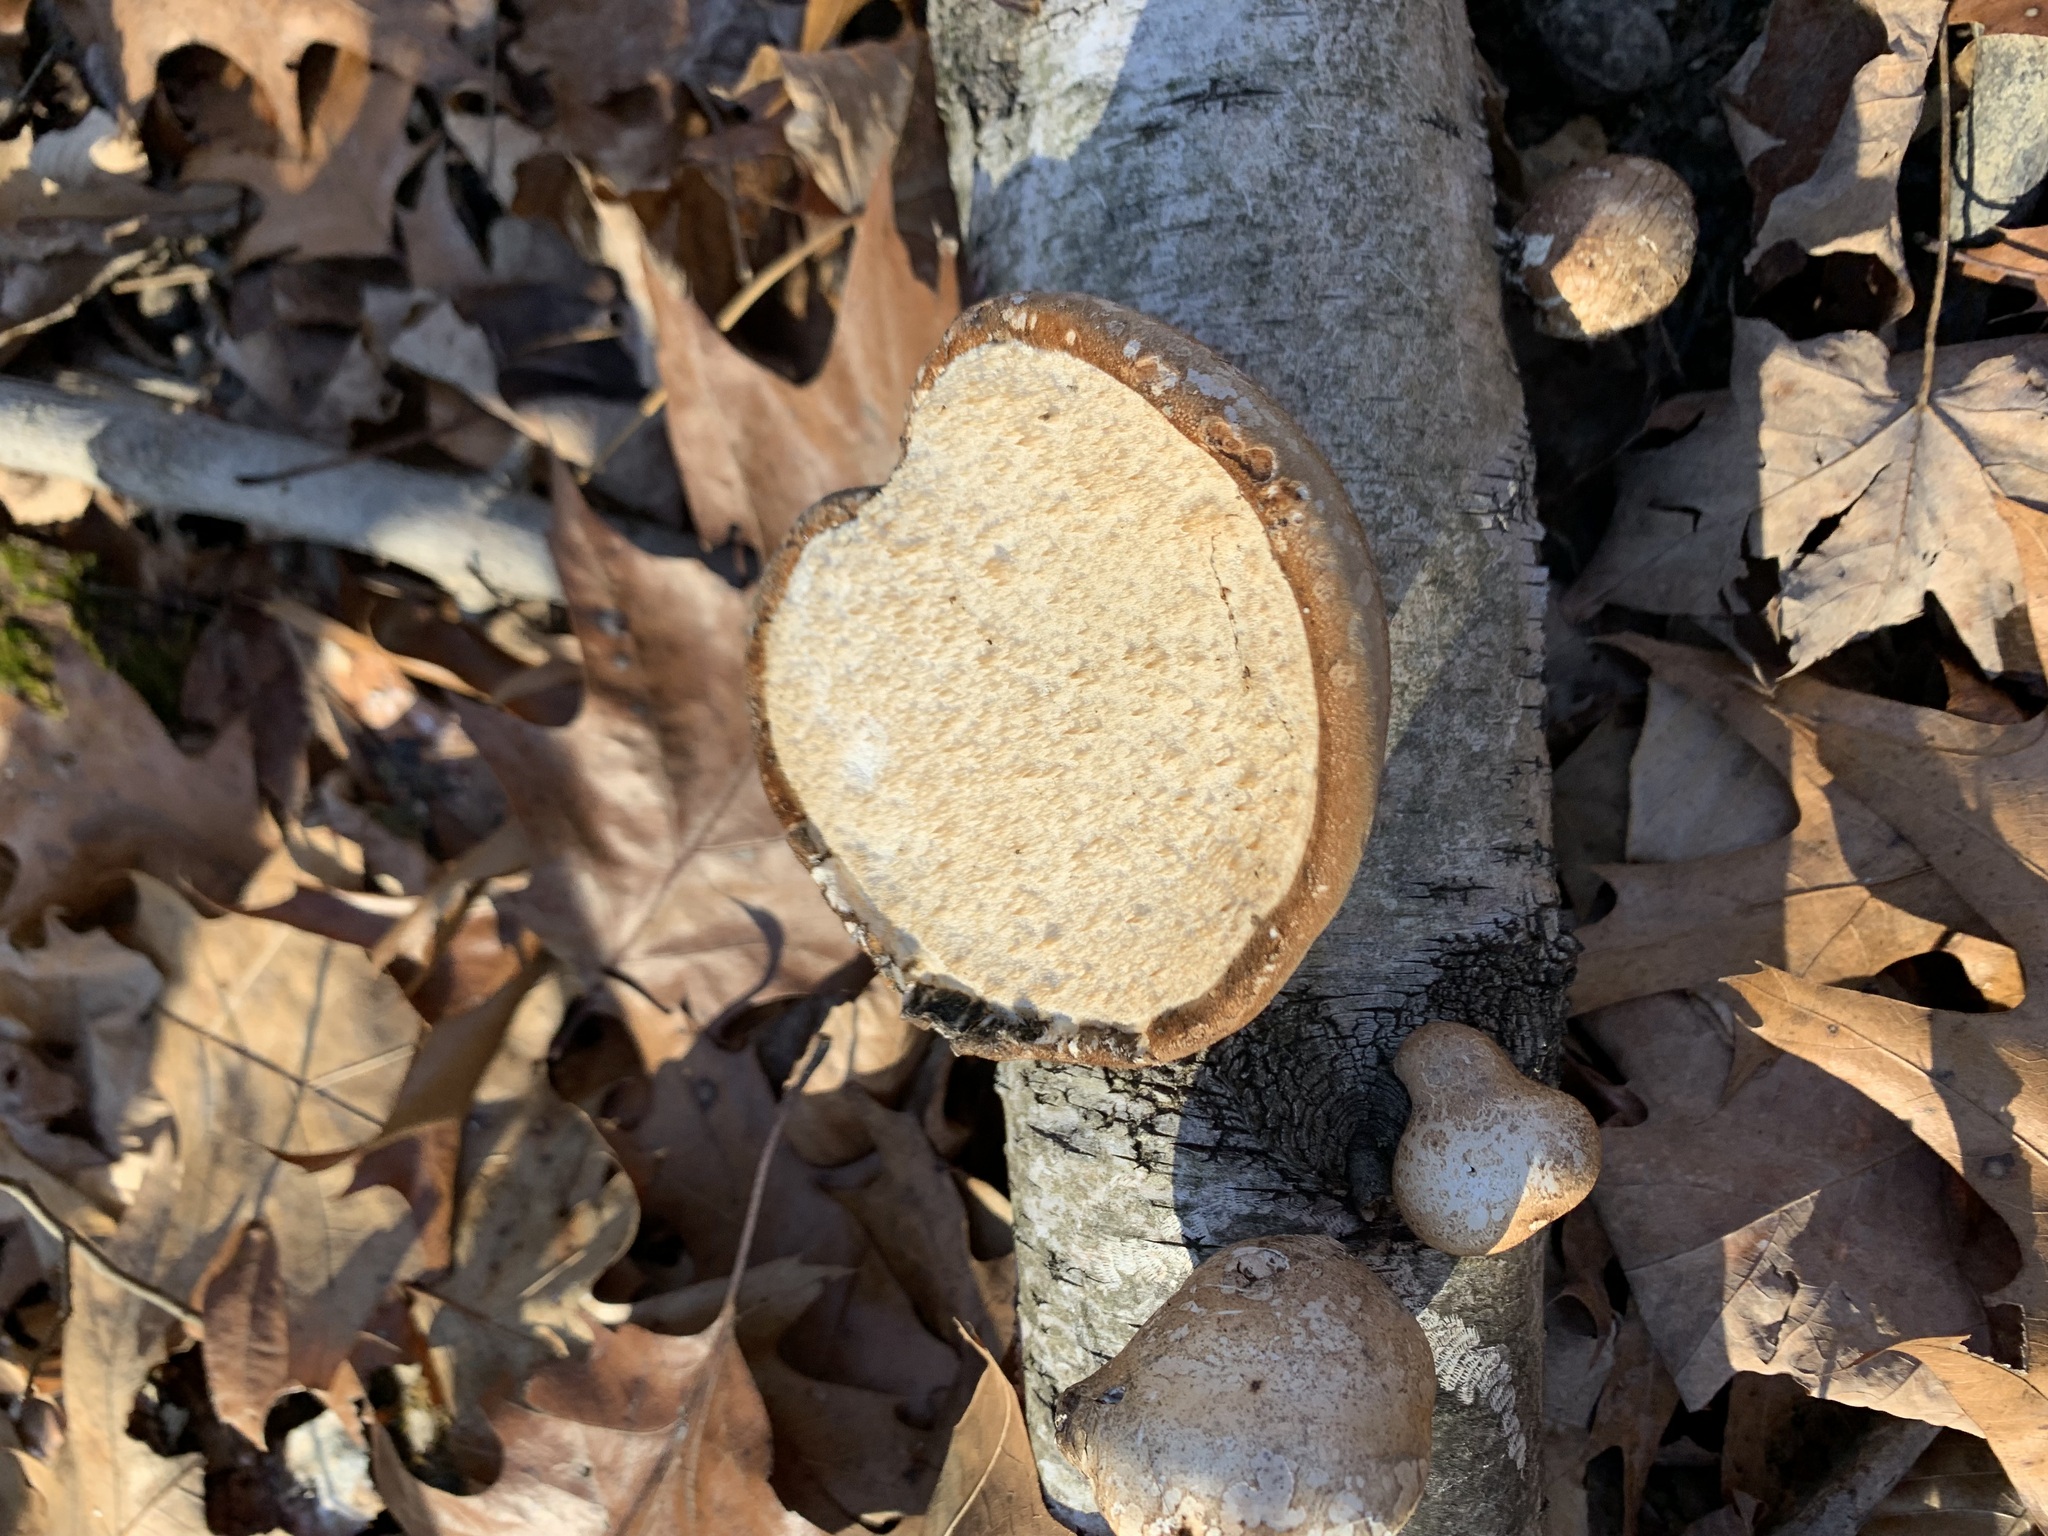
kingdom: Fungi
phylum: Basidiomycota
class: Agaricomycetes
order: Polyporales
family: Fomitopsidaceae
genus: Fomitopsis
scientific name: Fomitopsis betulina
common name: Birch polypore
